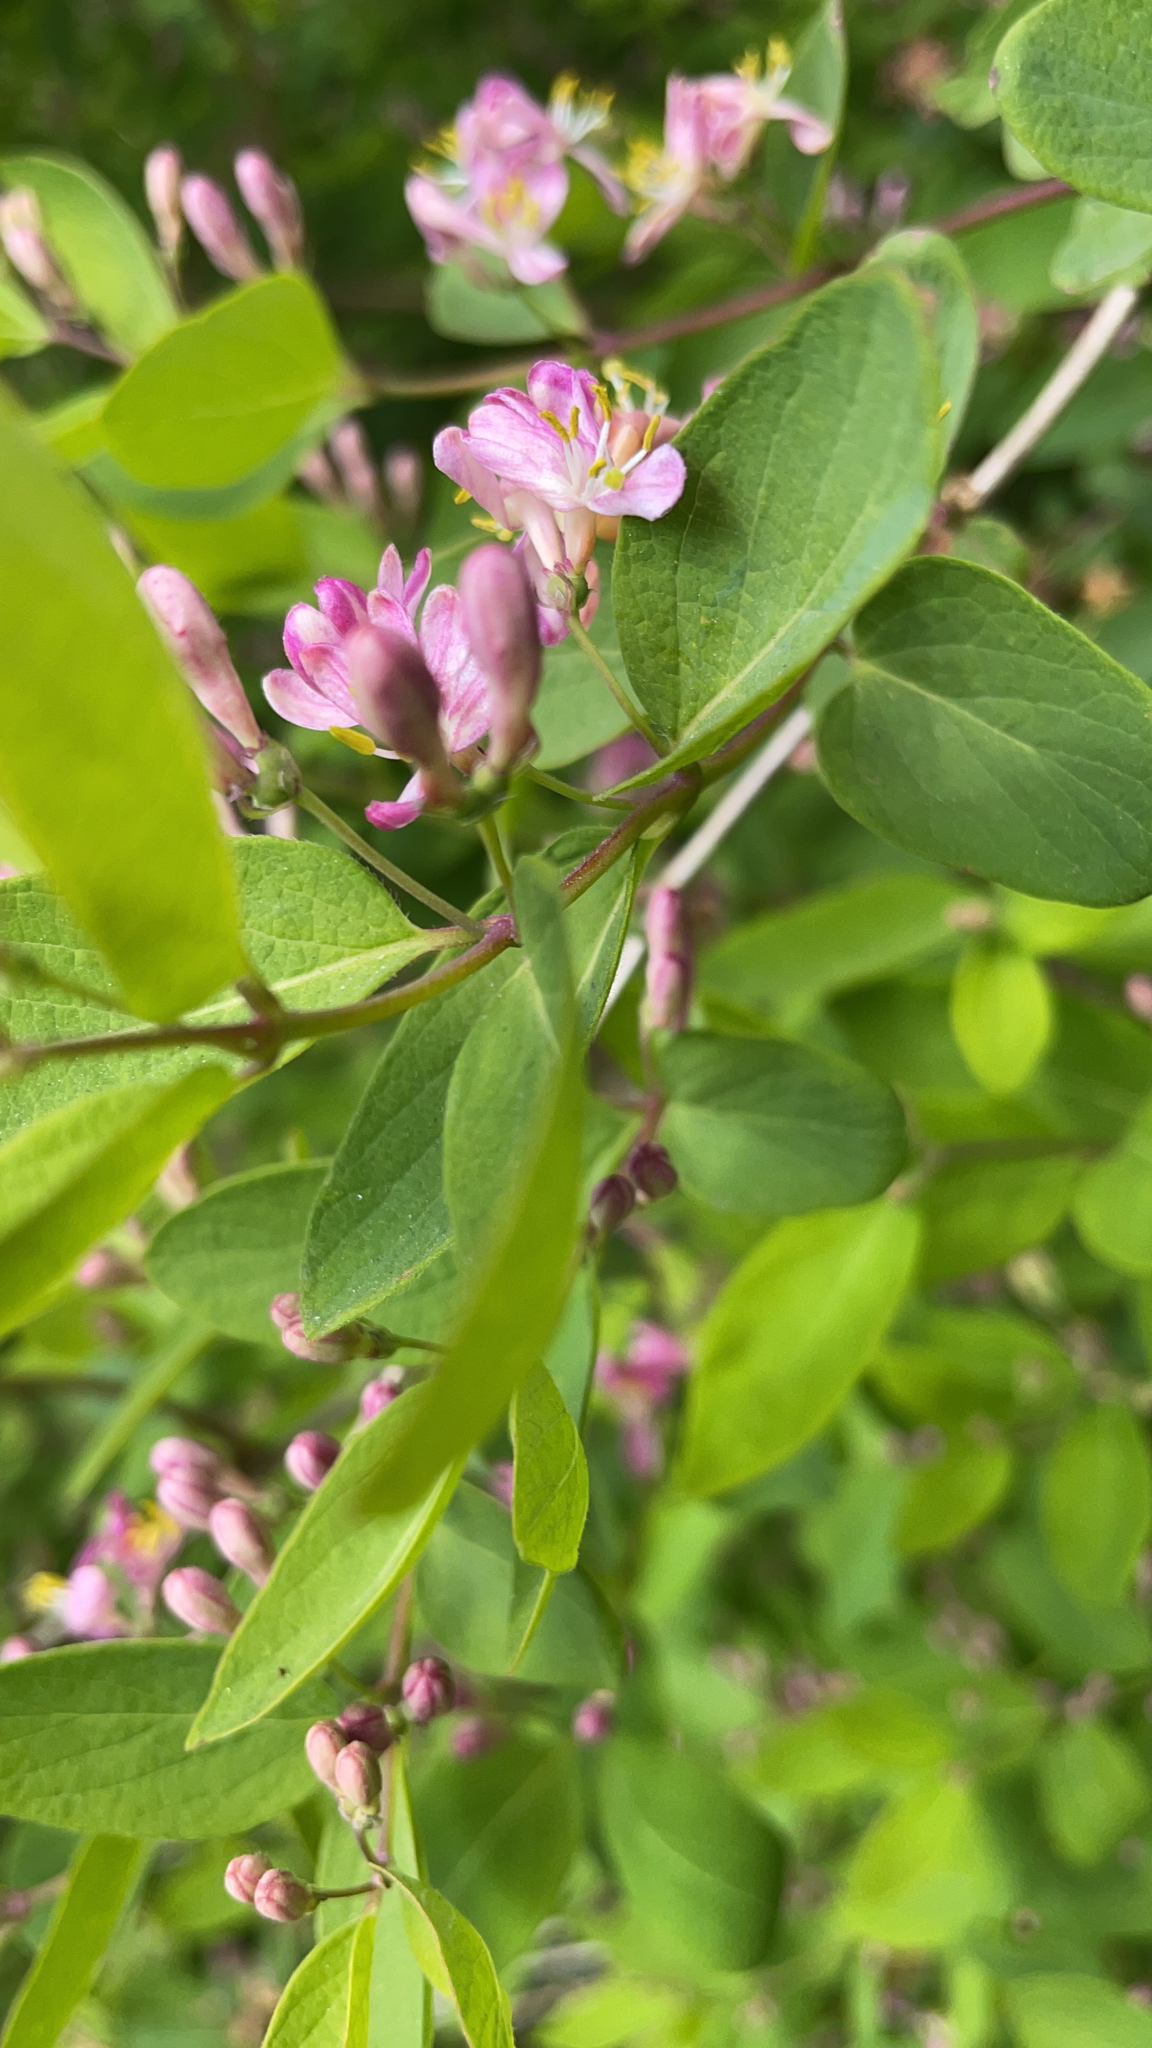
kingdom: Plantae
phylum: Tracheophyta
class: Magnoliopsida
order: Dipsacales
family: Caprifoliaceae
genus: Lonicera
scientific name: Lonicera tatarica
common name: Tatarian honeysuckle
